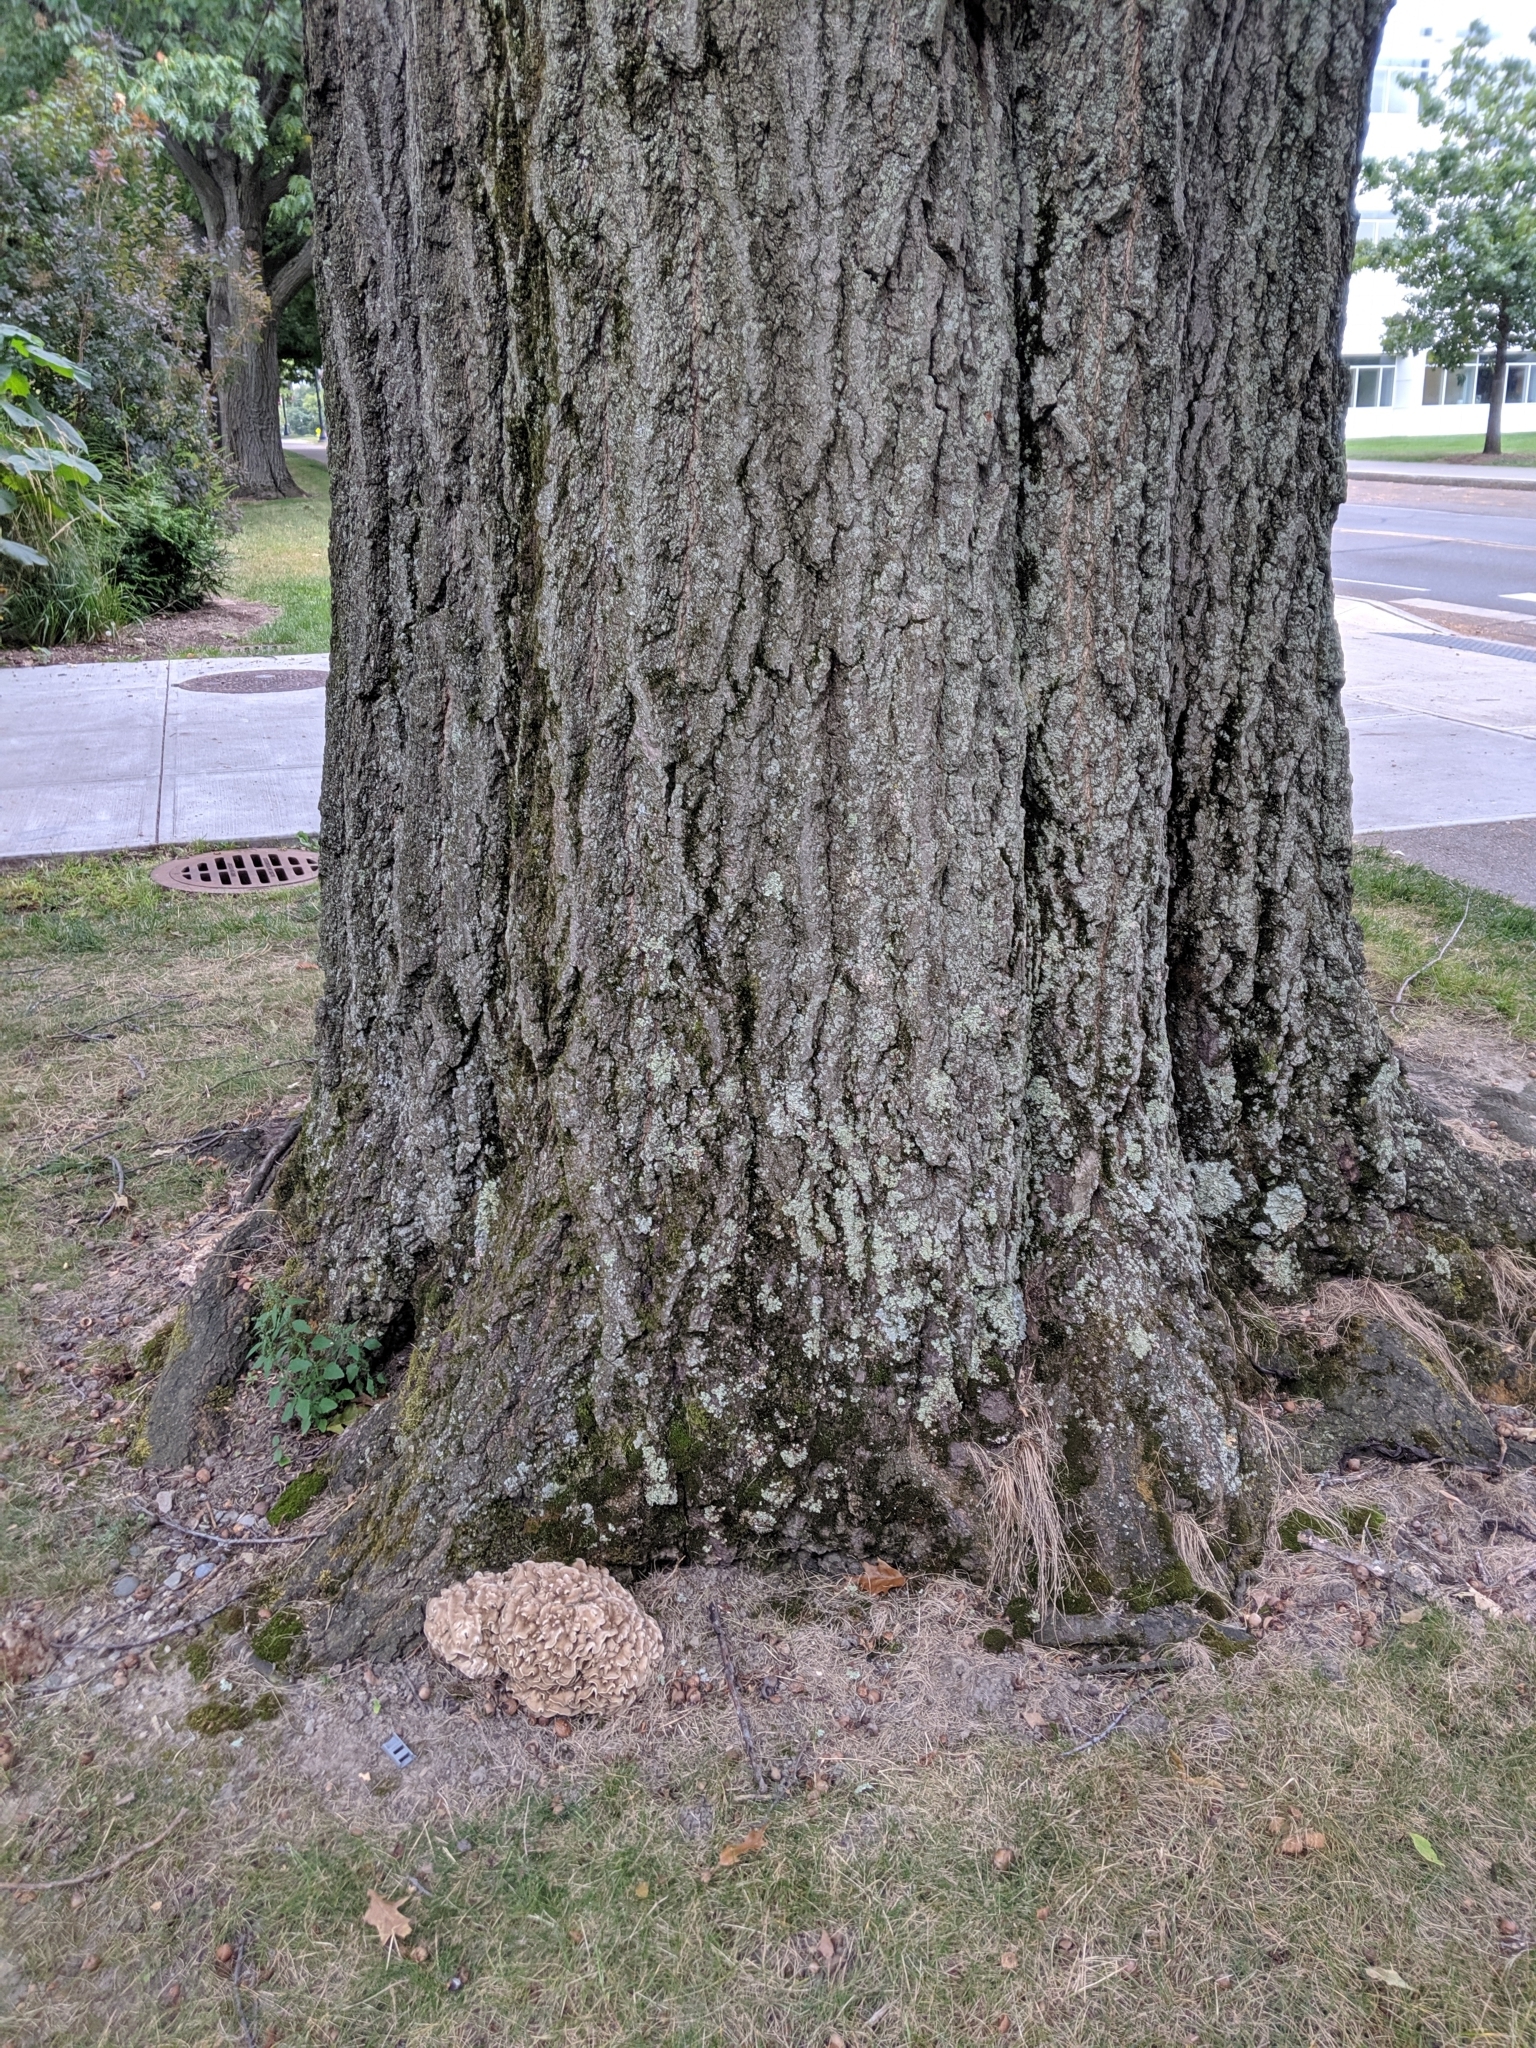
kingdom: Fungi
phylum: Basidiomycota
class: Agaricomycetes
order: Polyporales
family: Grifolaceae
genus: Grifola
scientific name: Grifola frondosa
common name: Hen of the woods
